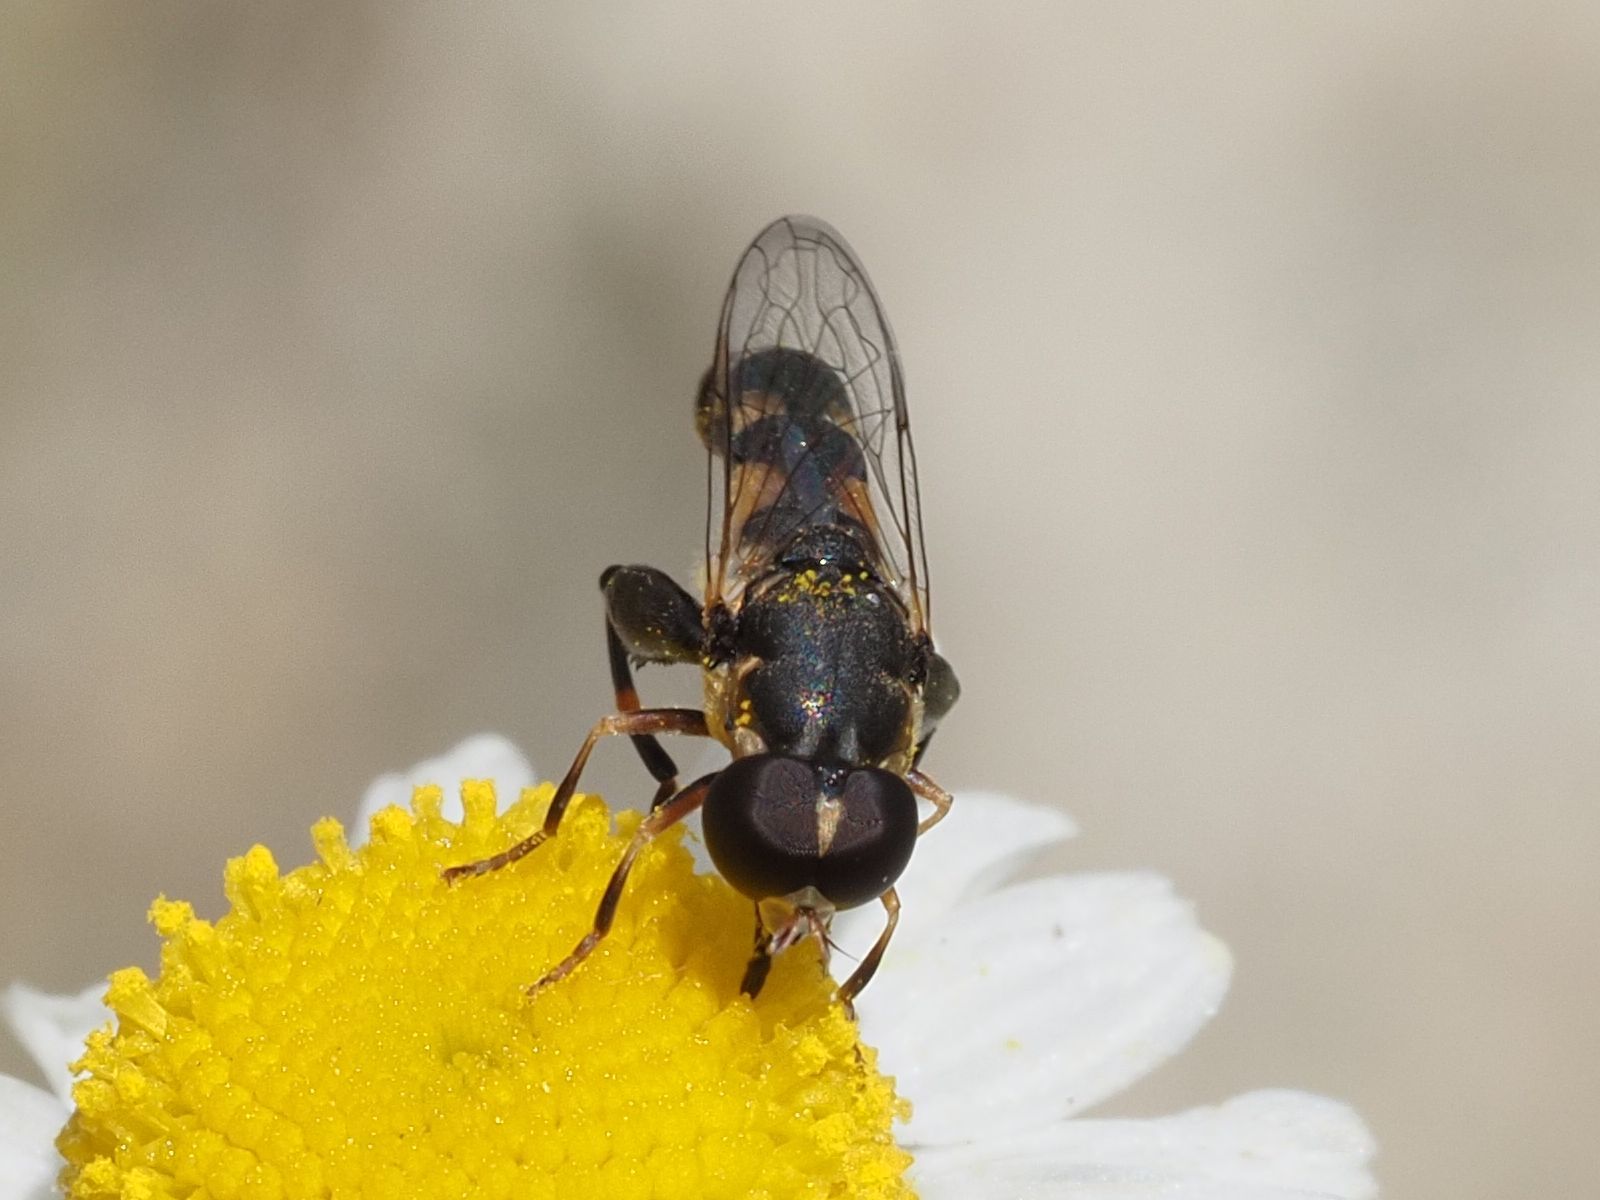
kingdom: Animalia
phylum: Arthropoda
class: Insecta
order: Diptera
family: Syrphidae
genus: Syritta
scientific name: Syritta pipiens
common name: Hover fly
